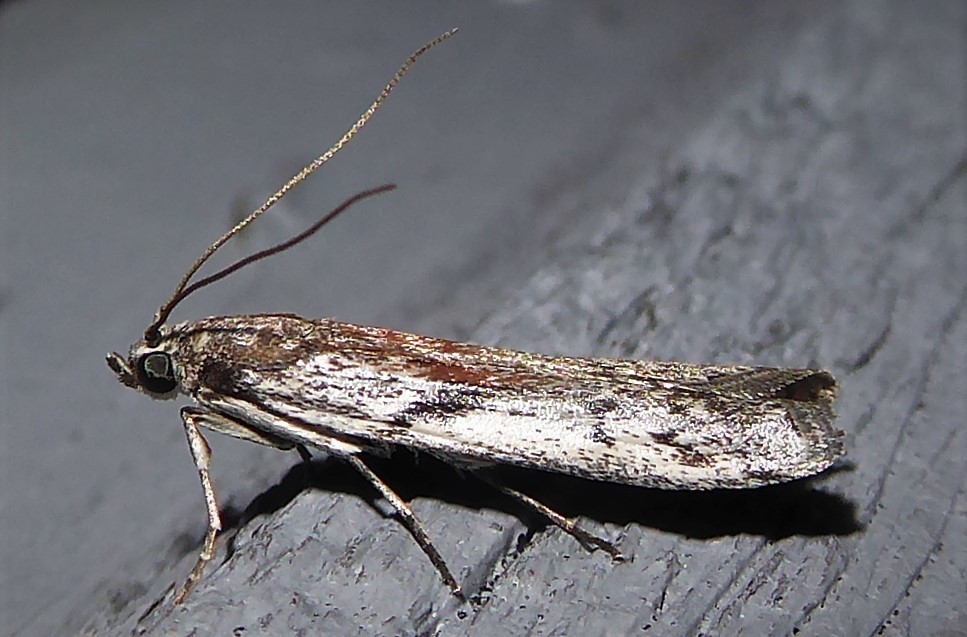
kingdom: Animalia
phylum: Arthropoda
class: Insecta
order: Lepidoptera
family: Pyralidae
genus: Patagoniodes
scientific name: Patagoniodes farinaria
